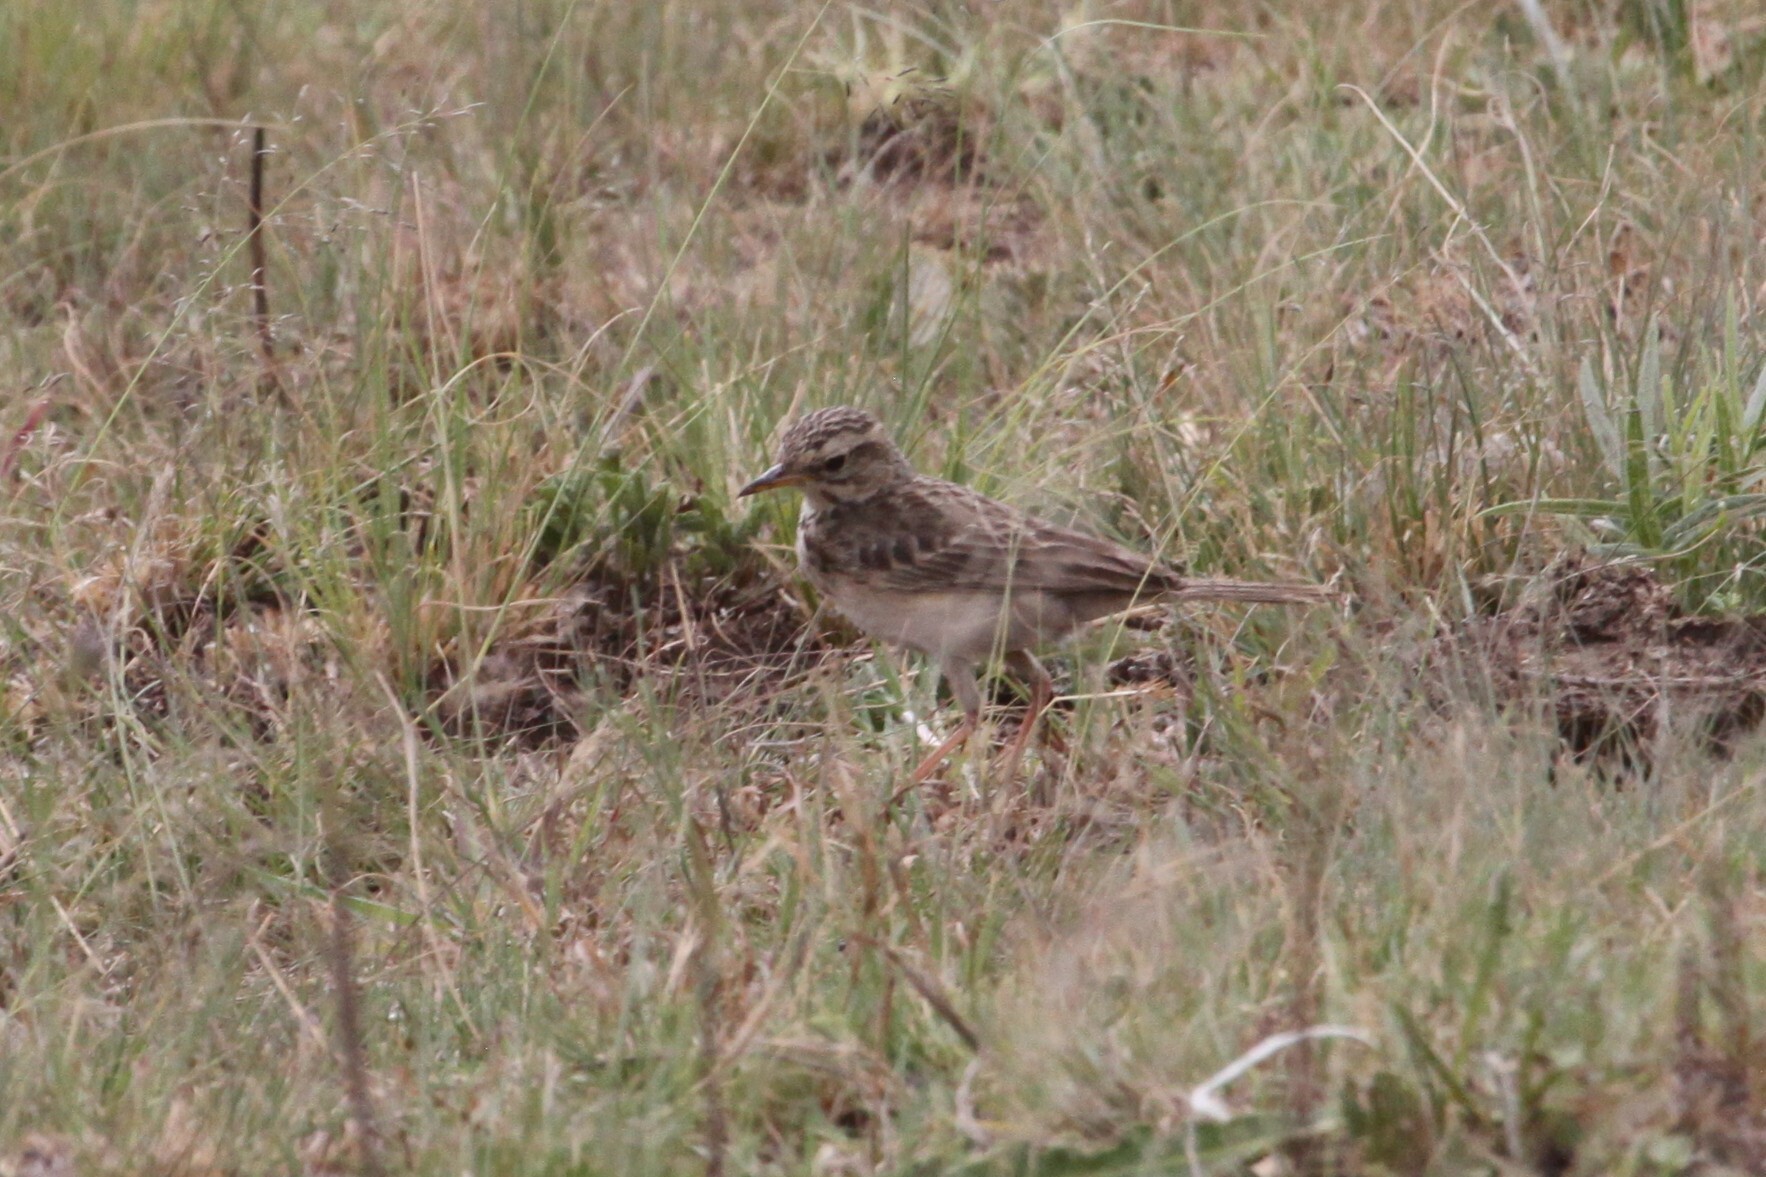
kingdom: Animalia
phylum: Chordata
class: Aves
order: Passeriformes
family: Motacillidae
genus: Anthus
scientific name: Anthus cinnamomeus
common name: African pipit
